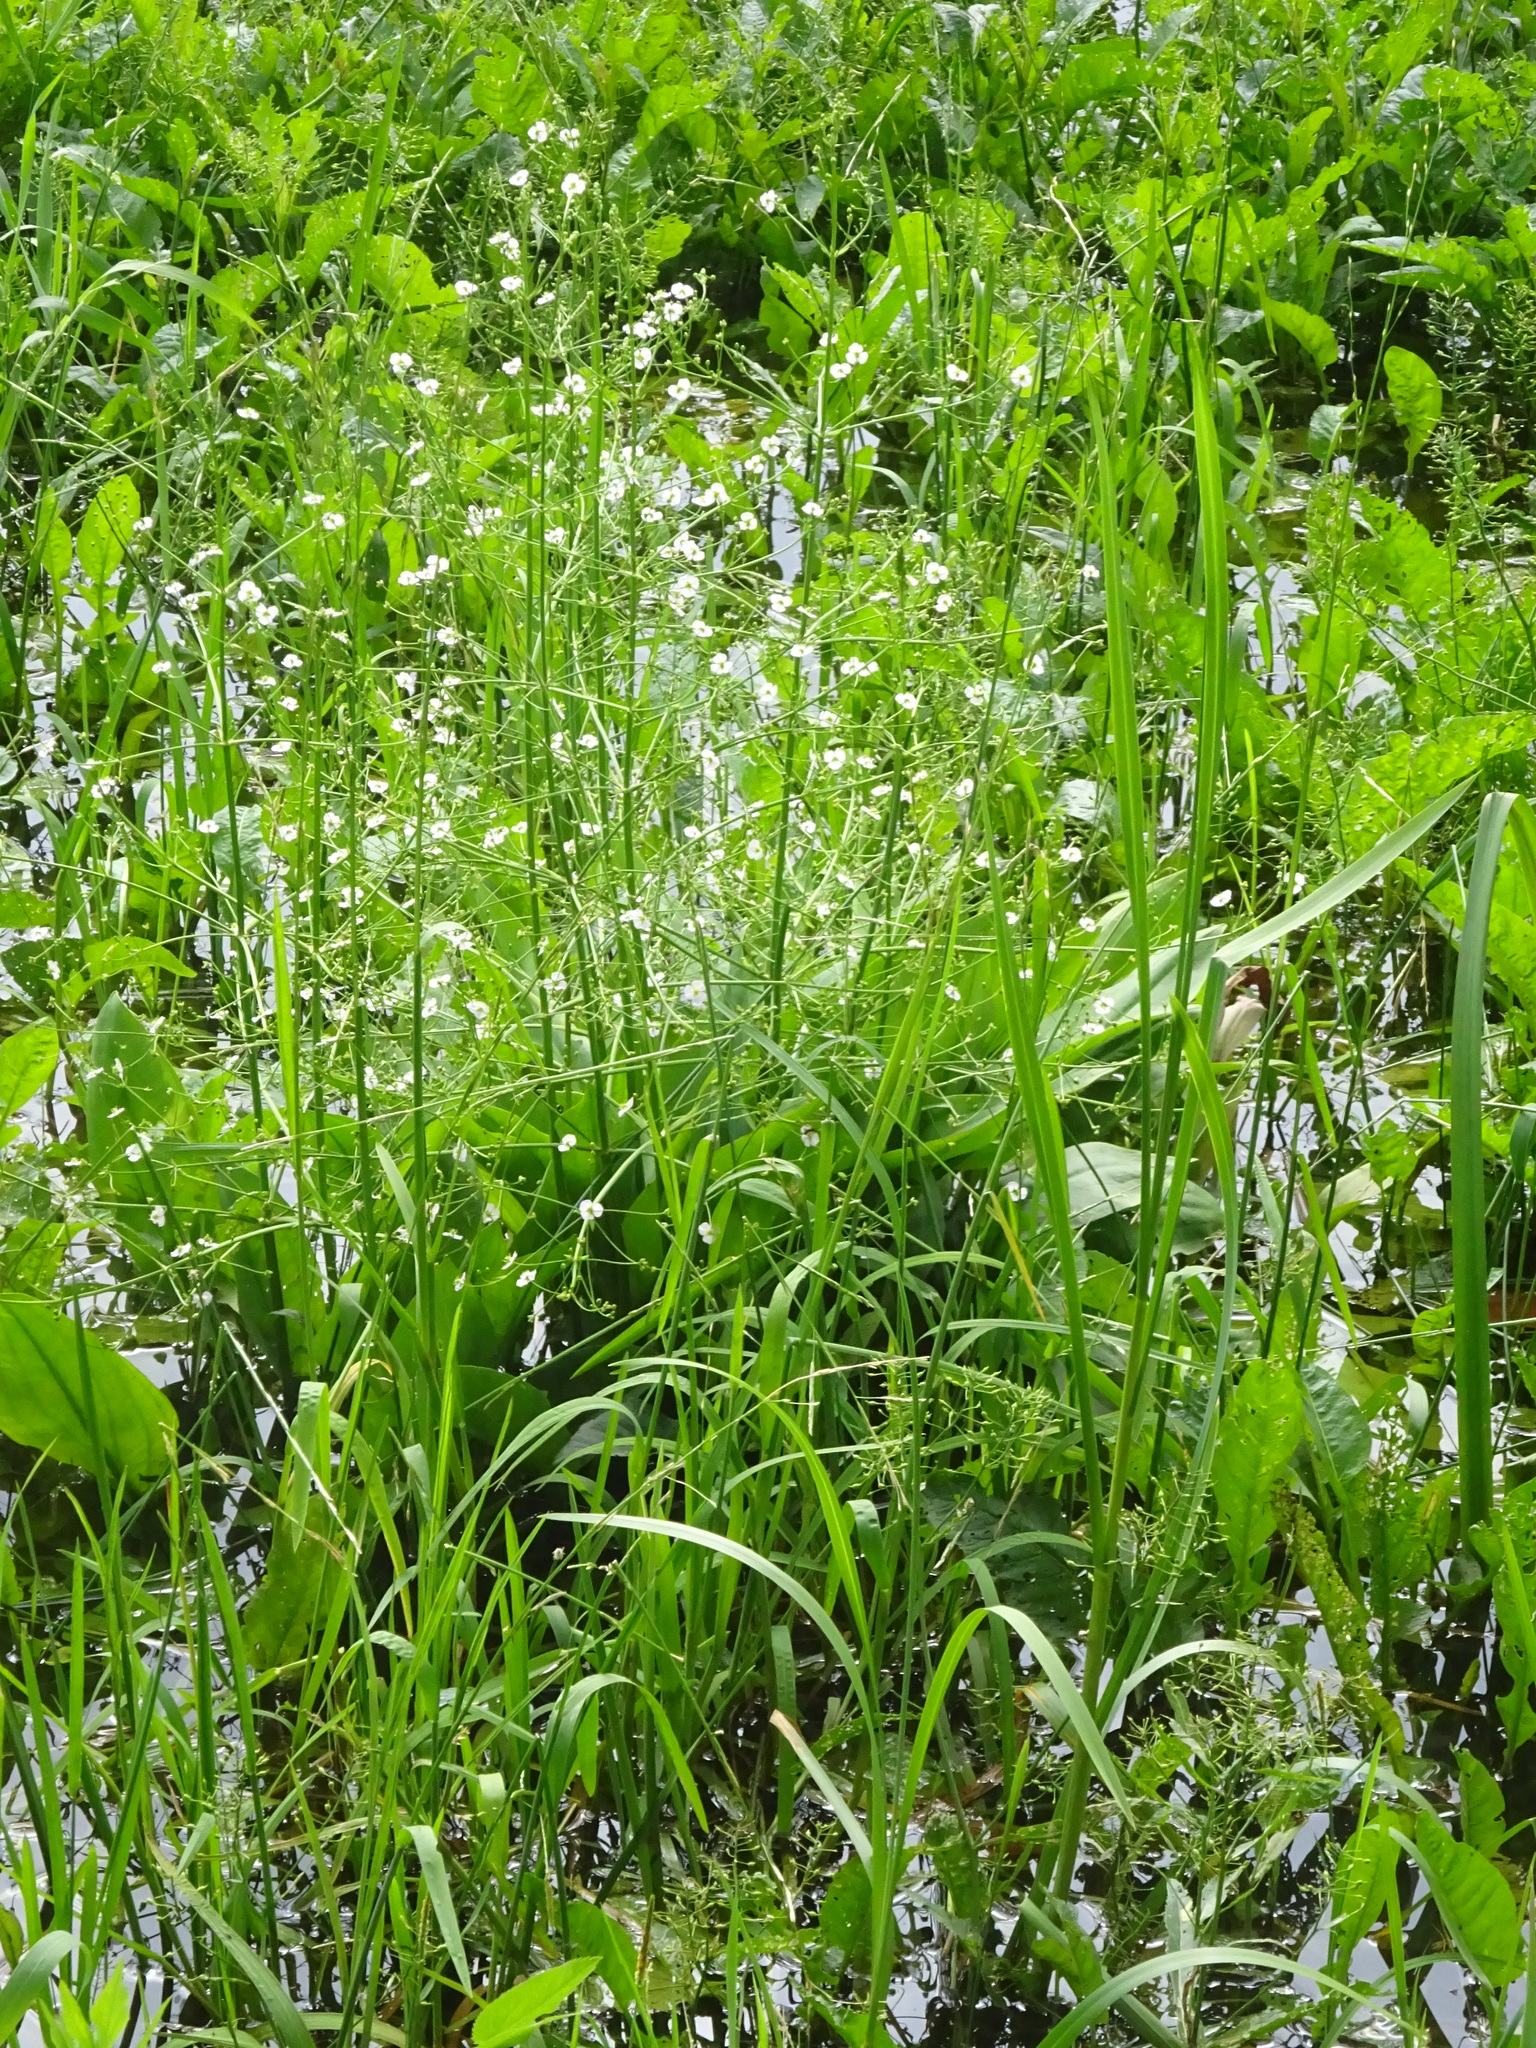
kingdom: Plantae
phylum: Tracheophyta
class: Liliopsida
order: Alismatales
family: Alismataceae
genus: Alisma
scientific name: Alisma plantago-aquatica
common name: Water-plantain
